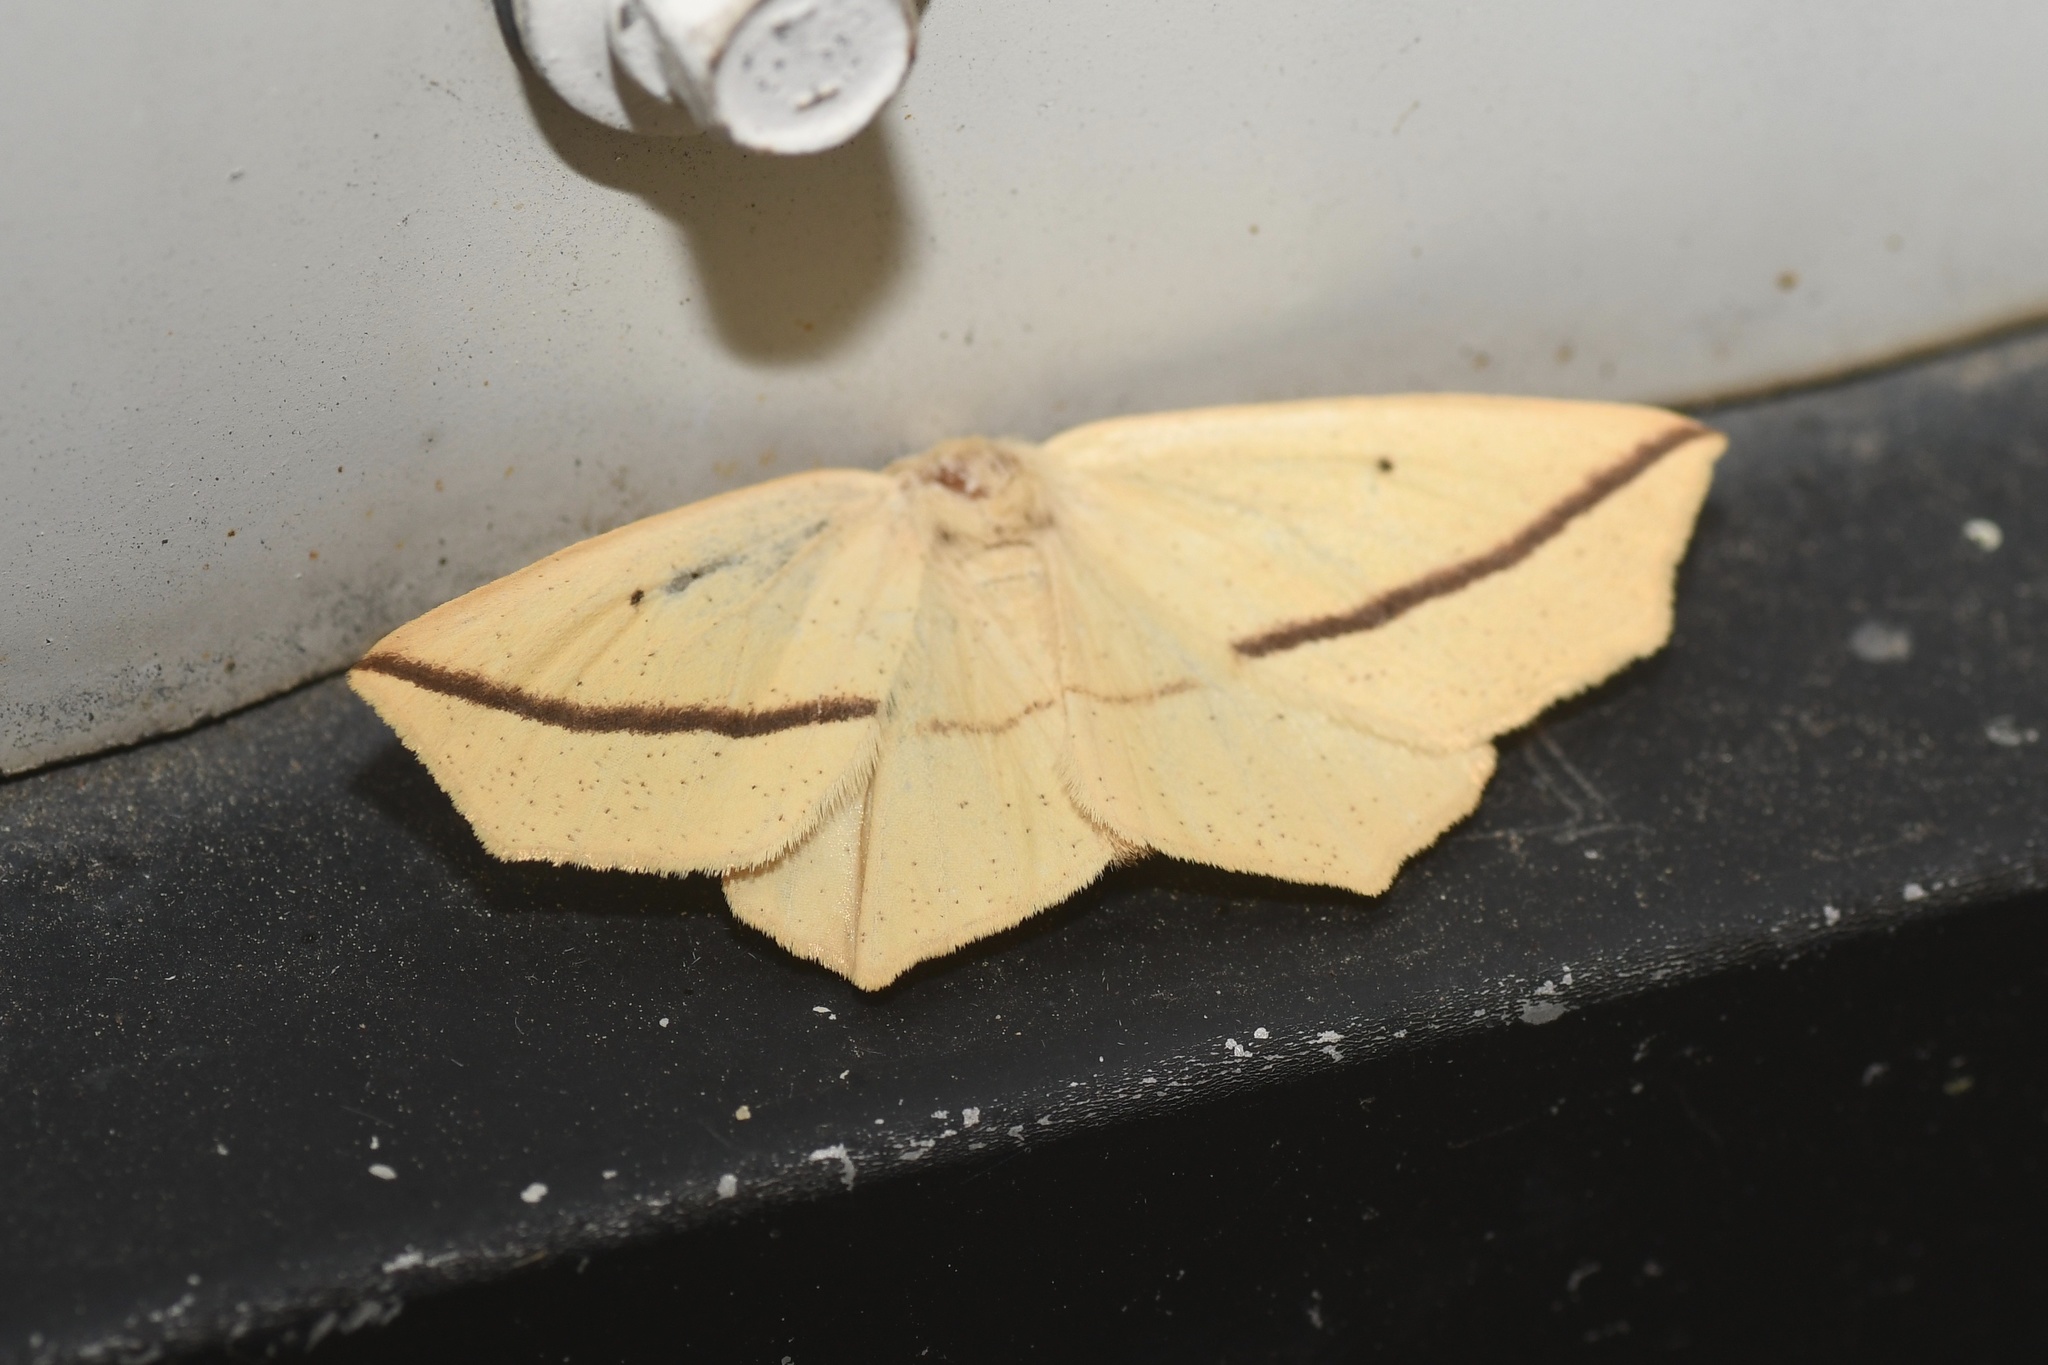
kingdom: Animalia
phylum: Arthropoda
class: Insecta
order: Lepidoptera
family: Geometridae
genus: Tetracis
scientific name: Tetracis crocallata
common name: Yellow slant-line
